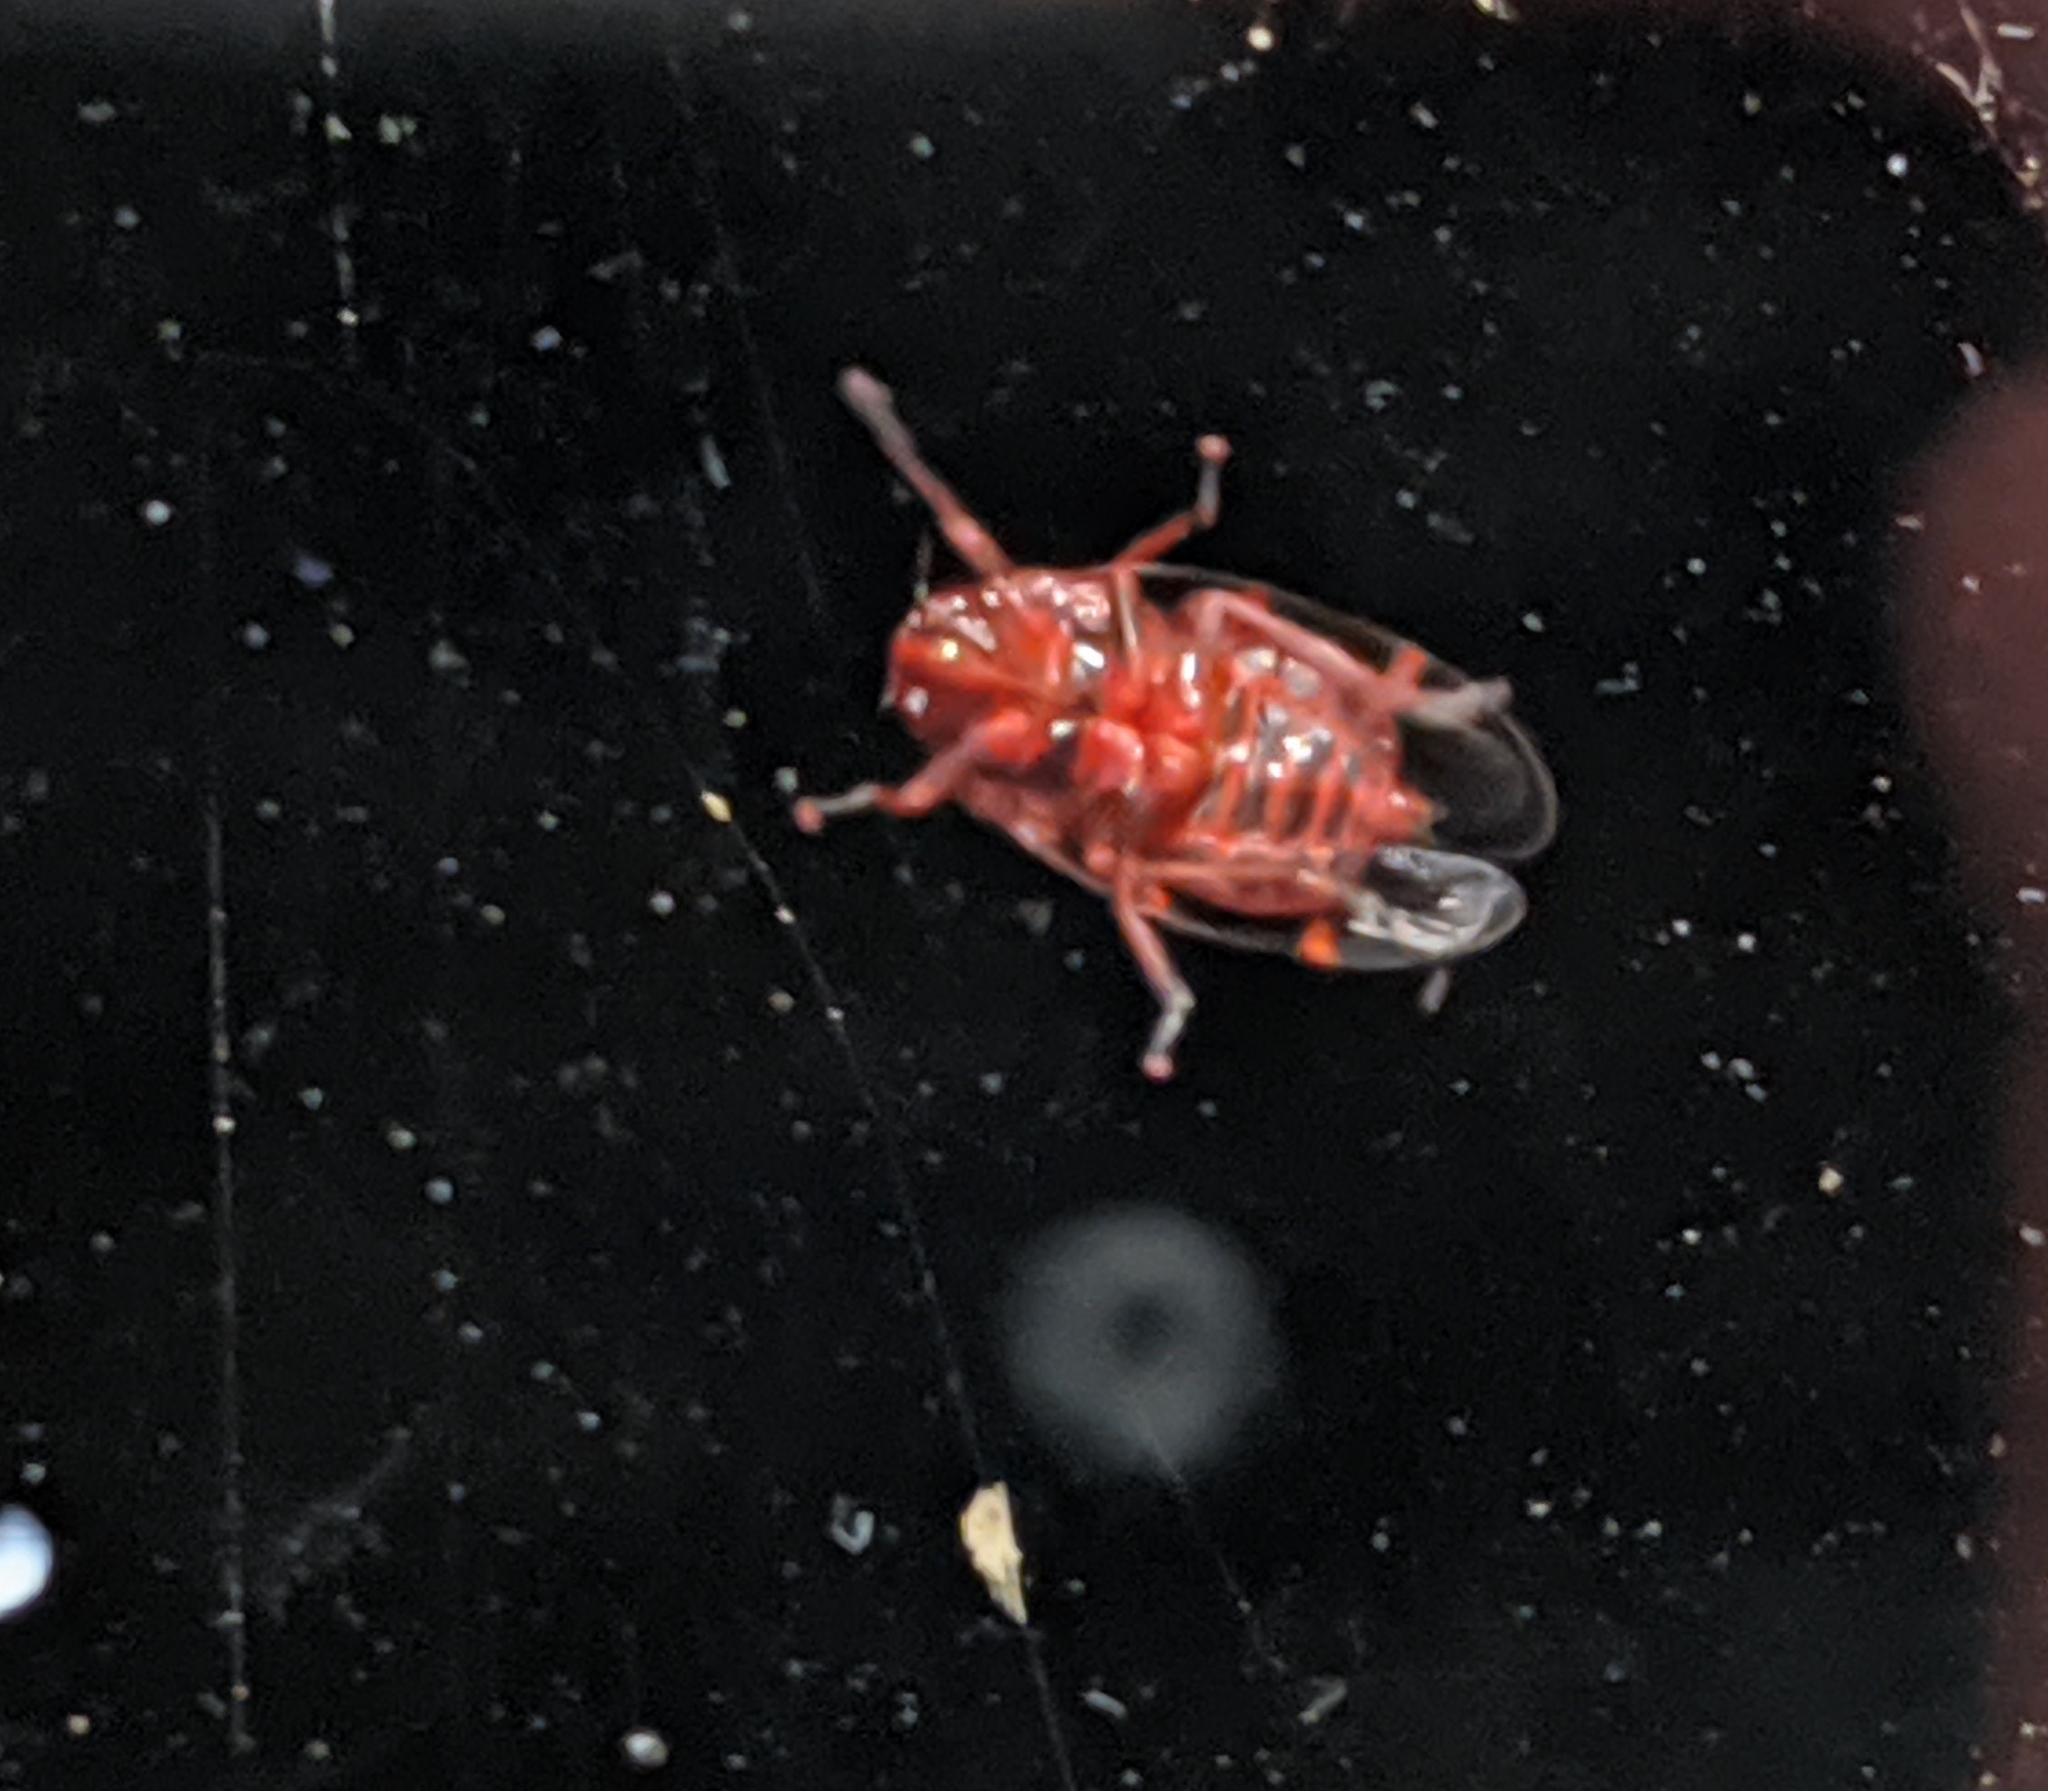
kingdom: Animalia
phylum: Arthropoda
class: Insecta
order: Hemiptera
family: Cercopidae
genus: Prosapia
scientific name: Prosapia bicincta
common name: Twolined spittlebug
